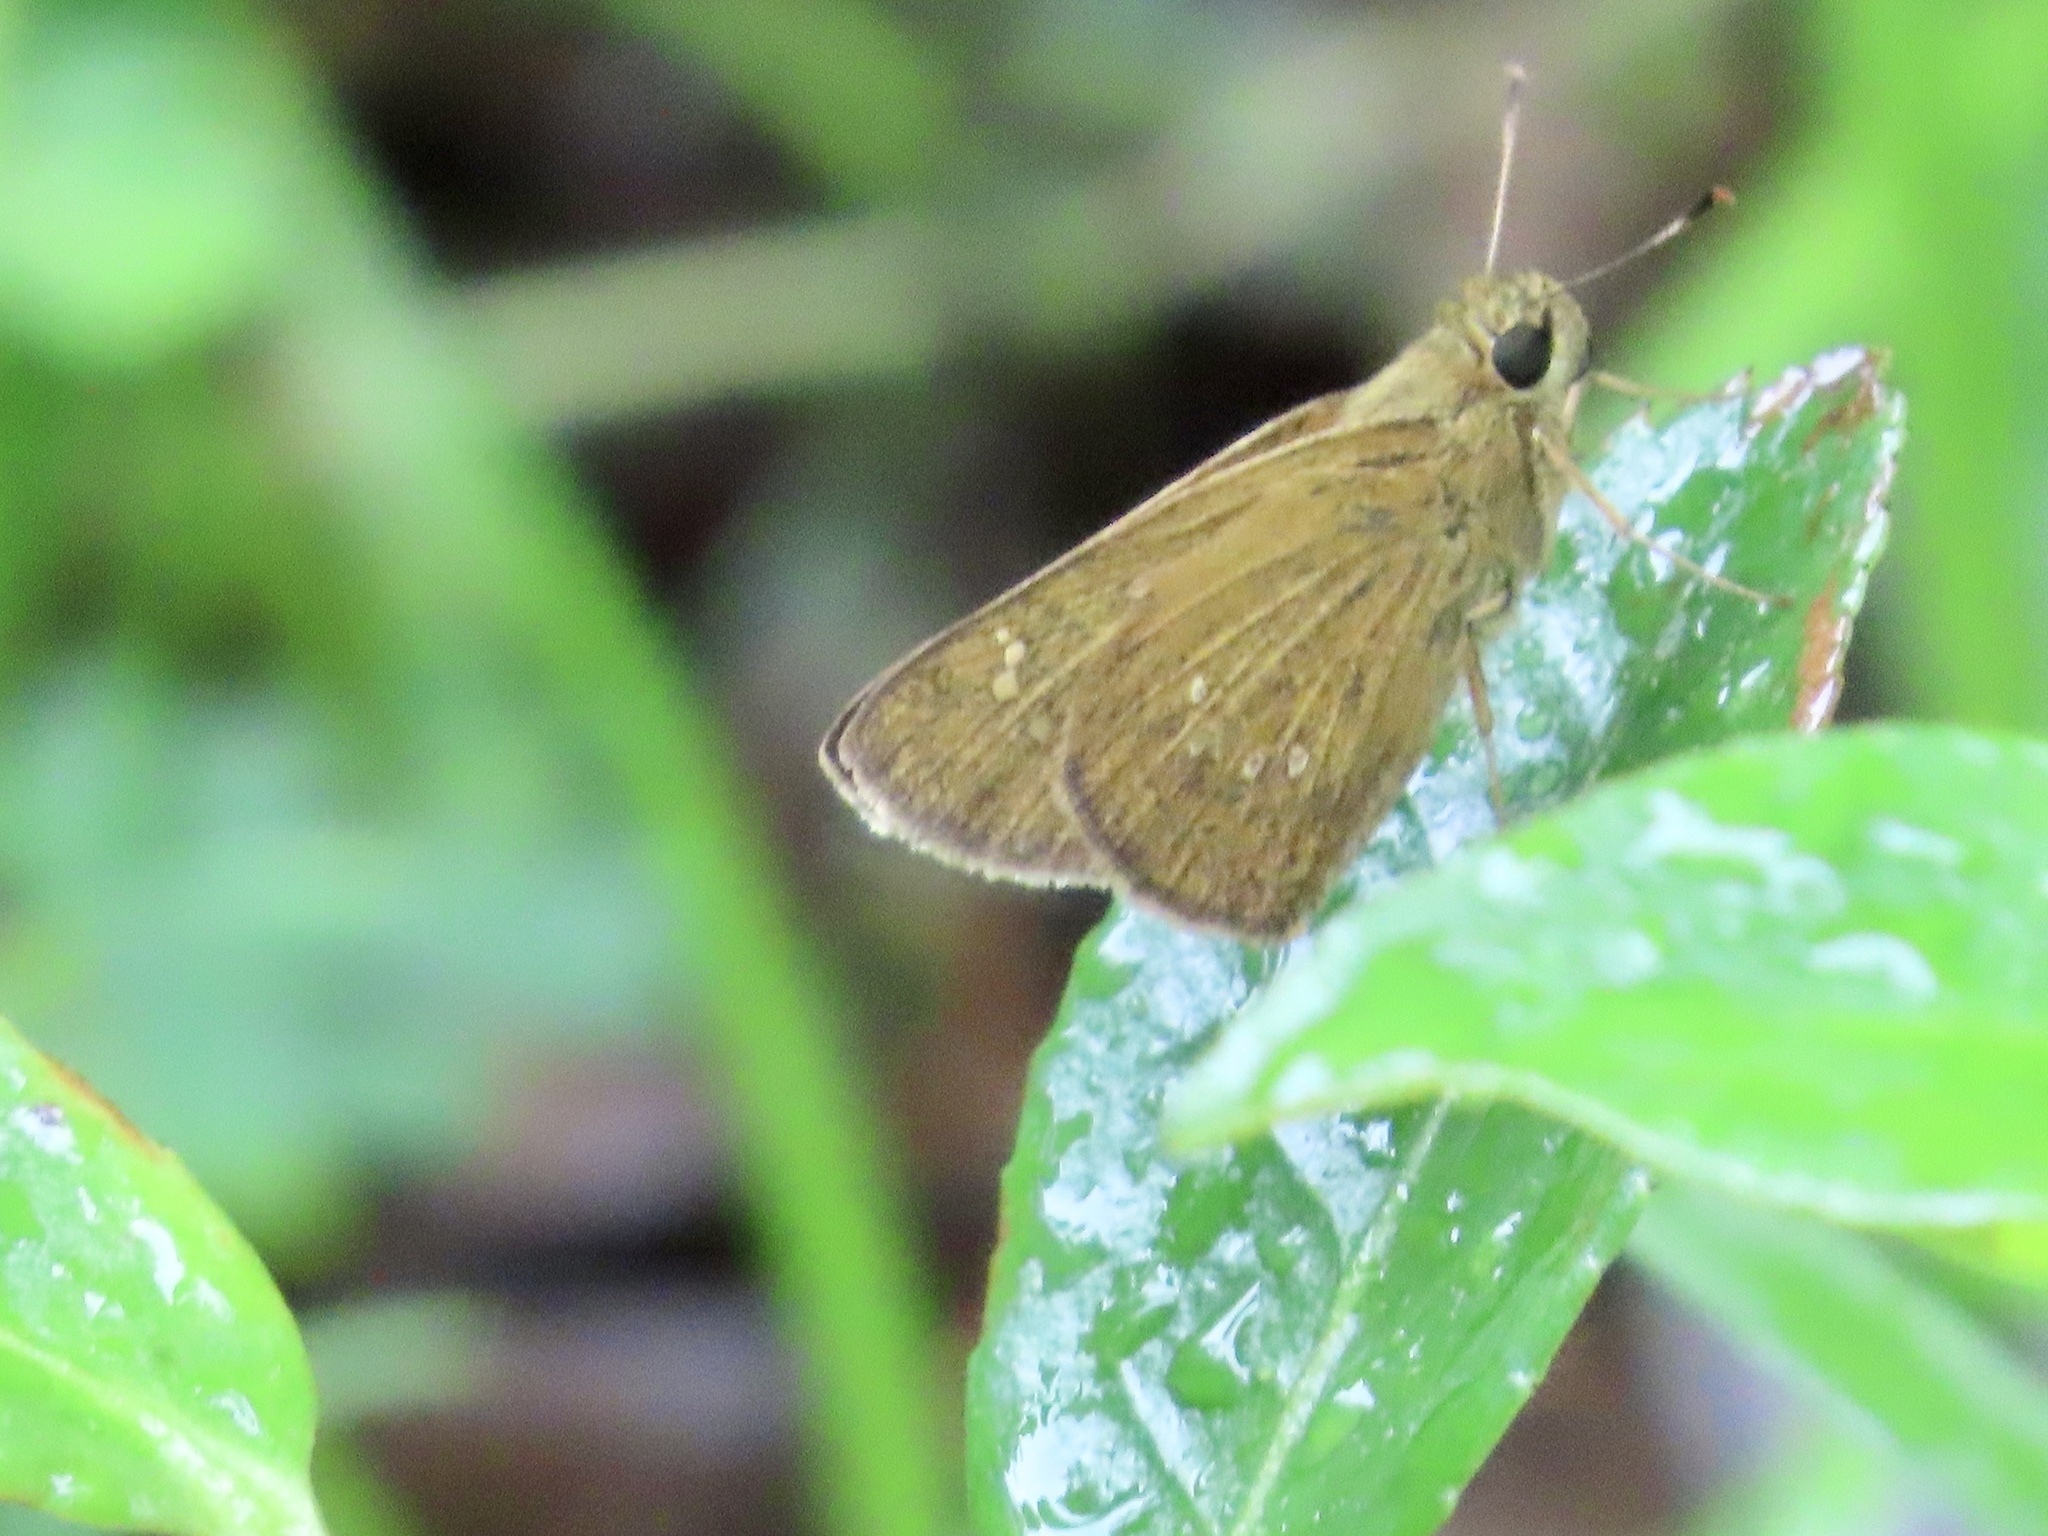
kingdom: Animalia
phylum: Arthropoda
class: Insecta
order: Lepidoptera
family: Hesperiidae
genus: Polytremis
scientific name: Polytremis lubricans
